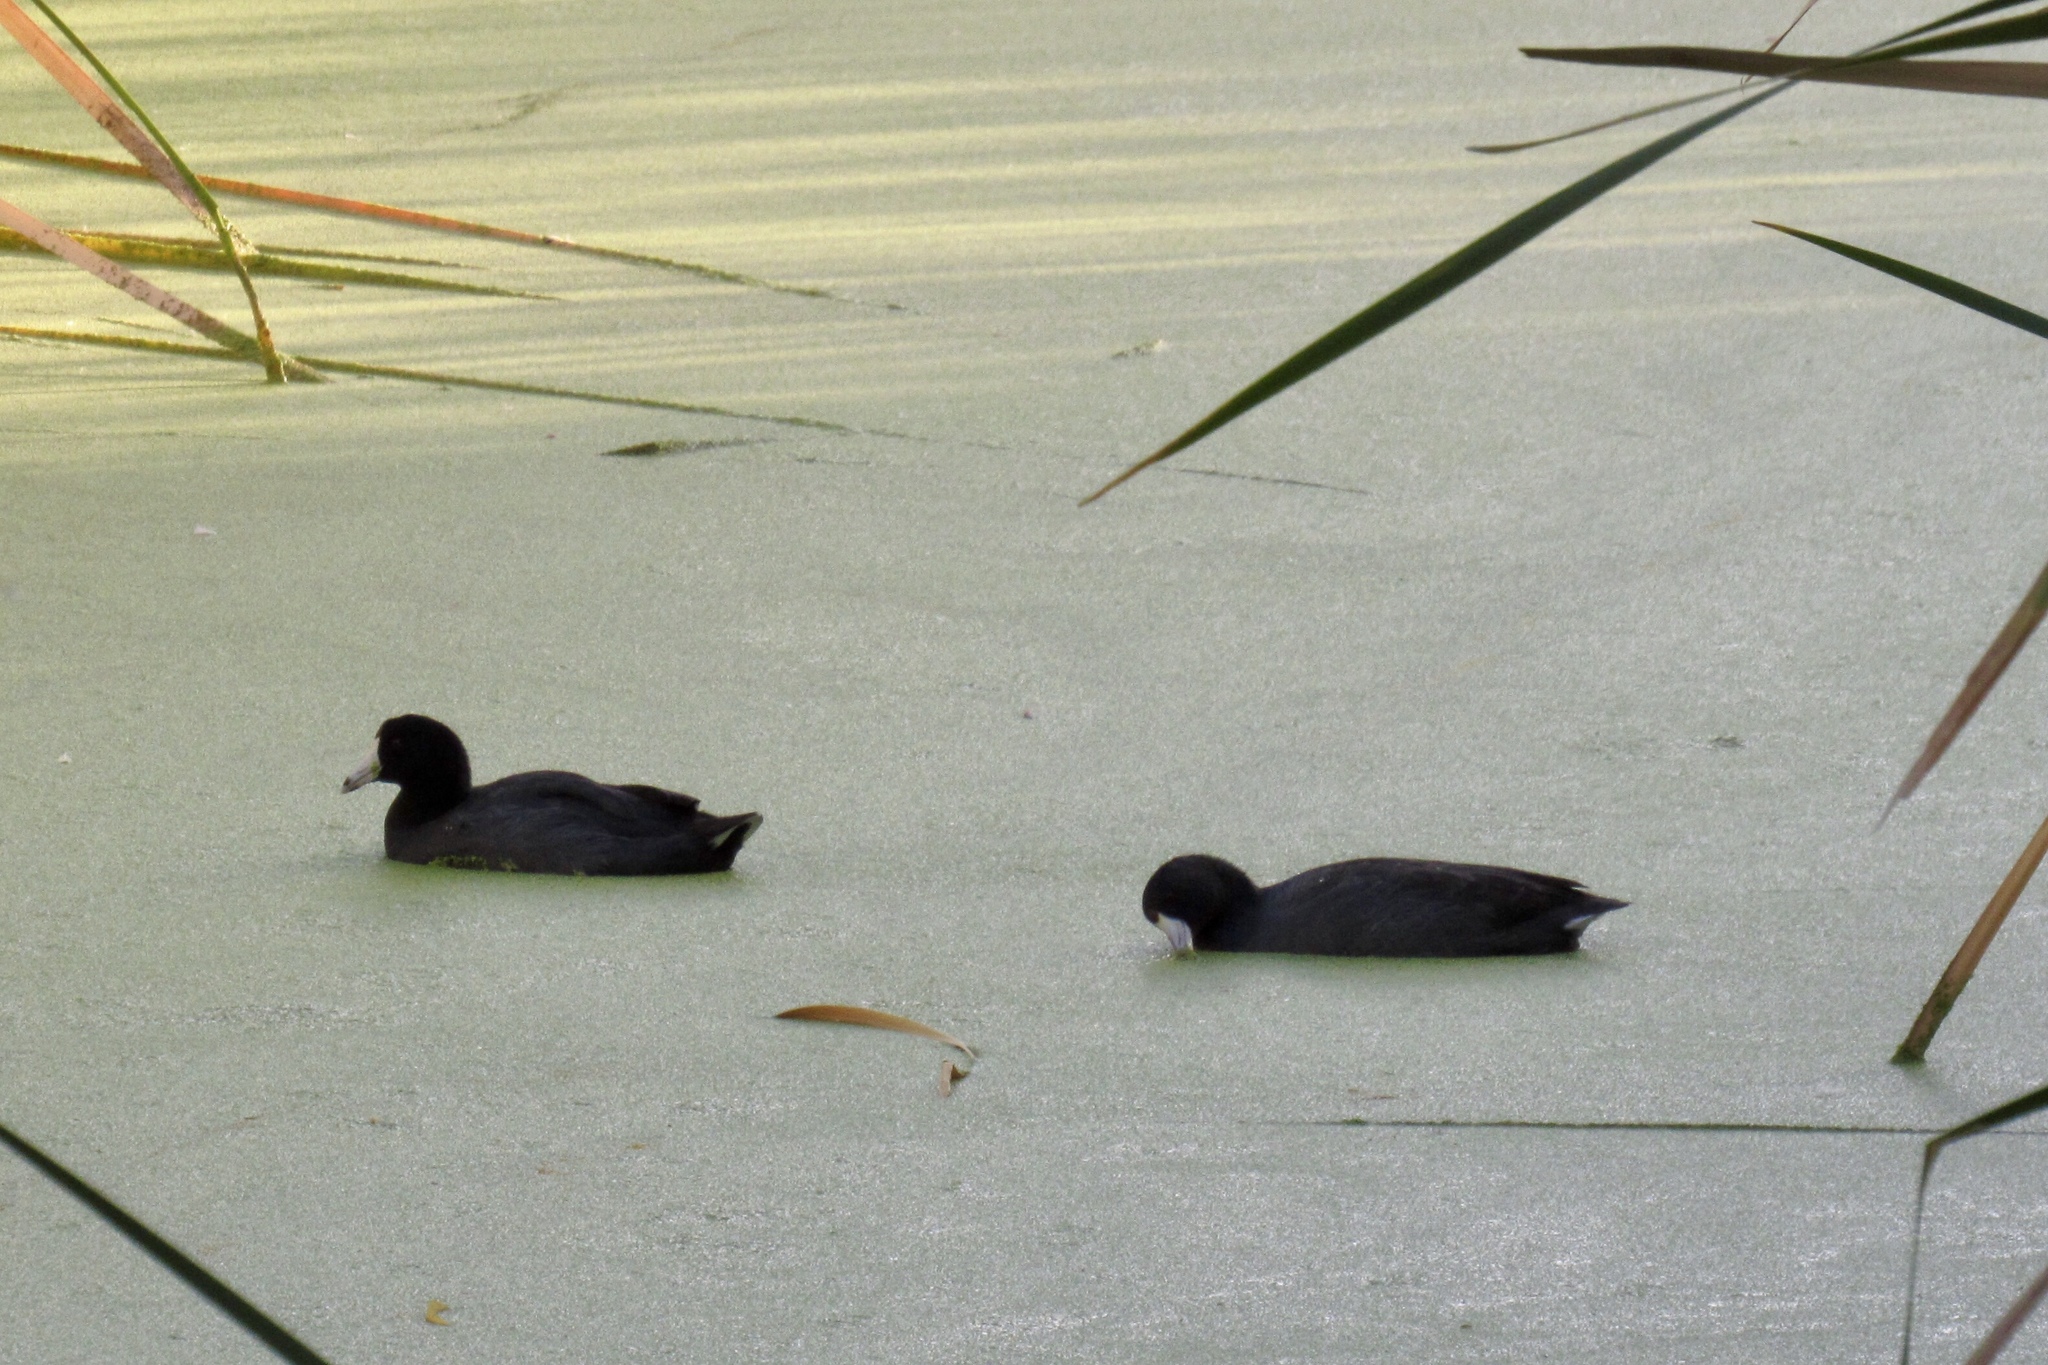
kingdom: Animalia
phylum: Chordata
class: Aves
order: Gruiformes
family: Rallidae
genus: Fulica
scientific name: Fulica americana
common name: American coot
